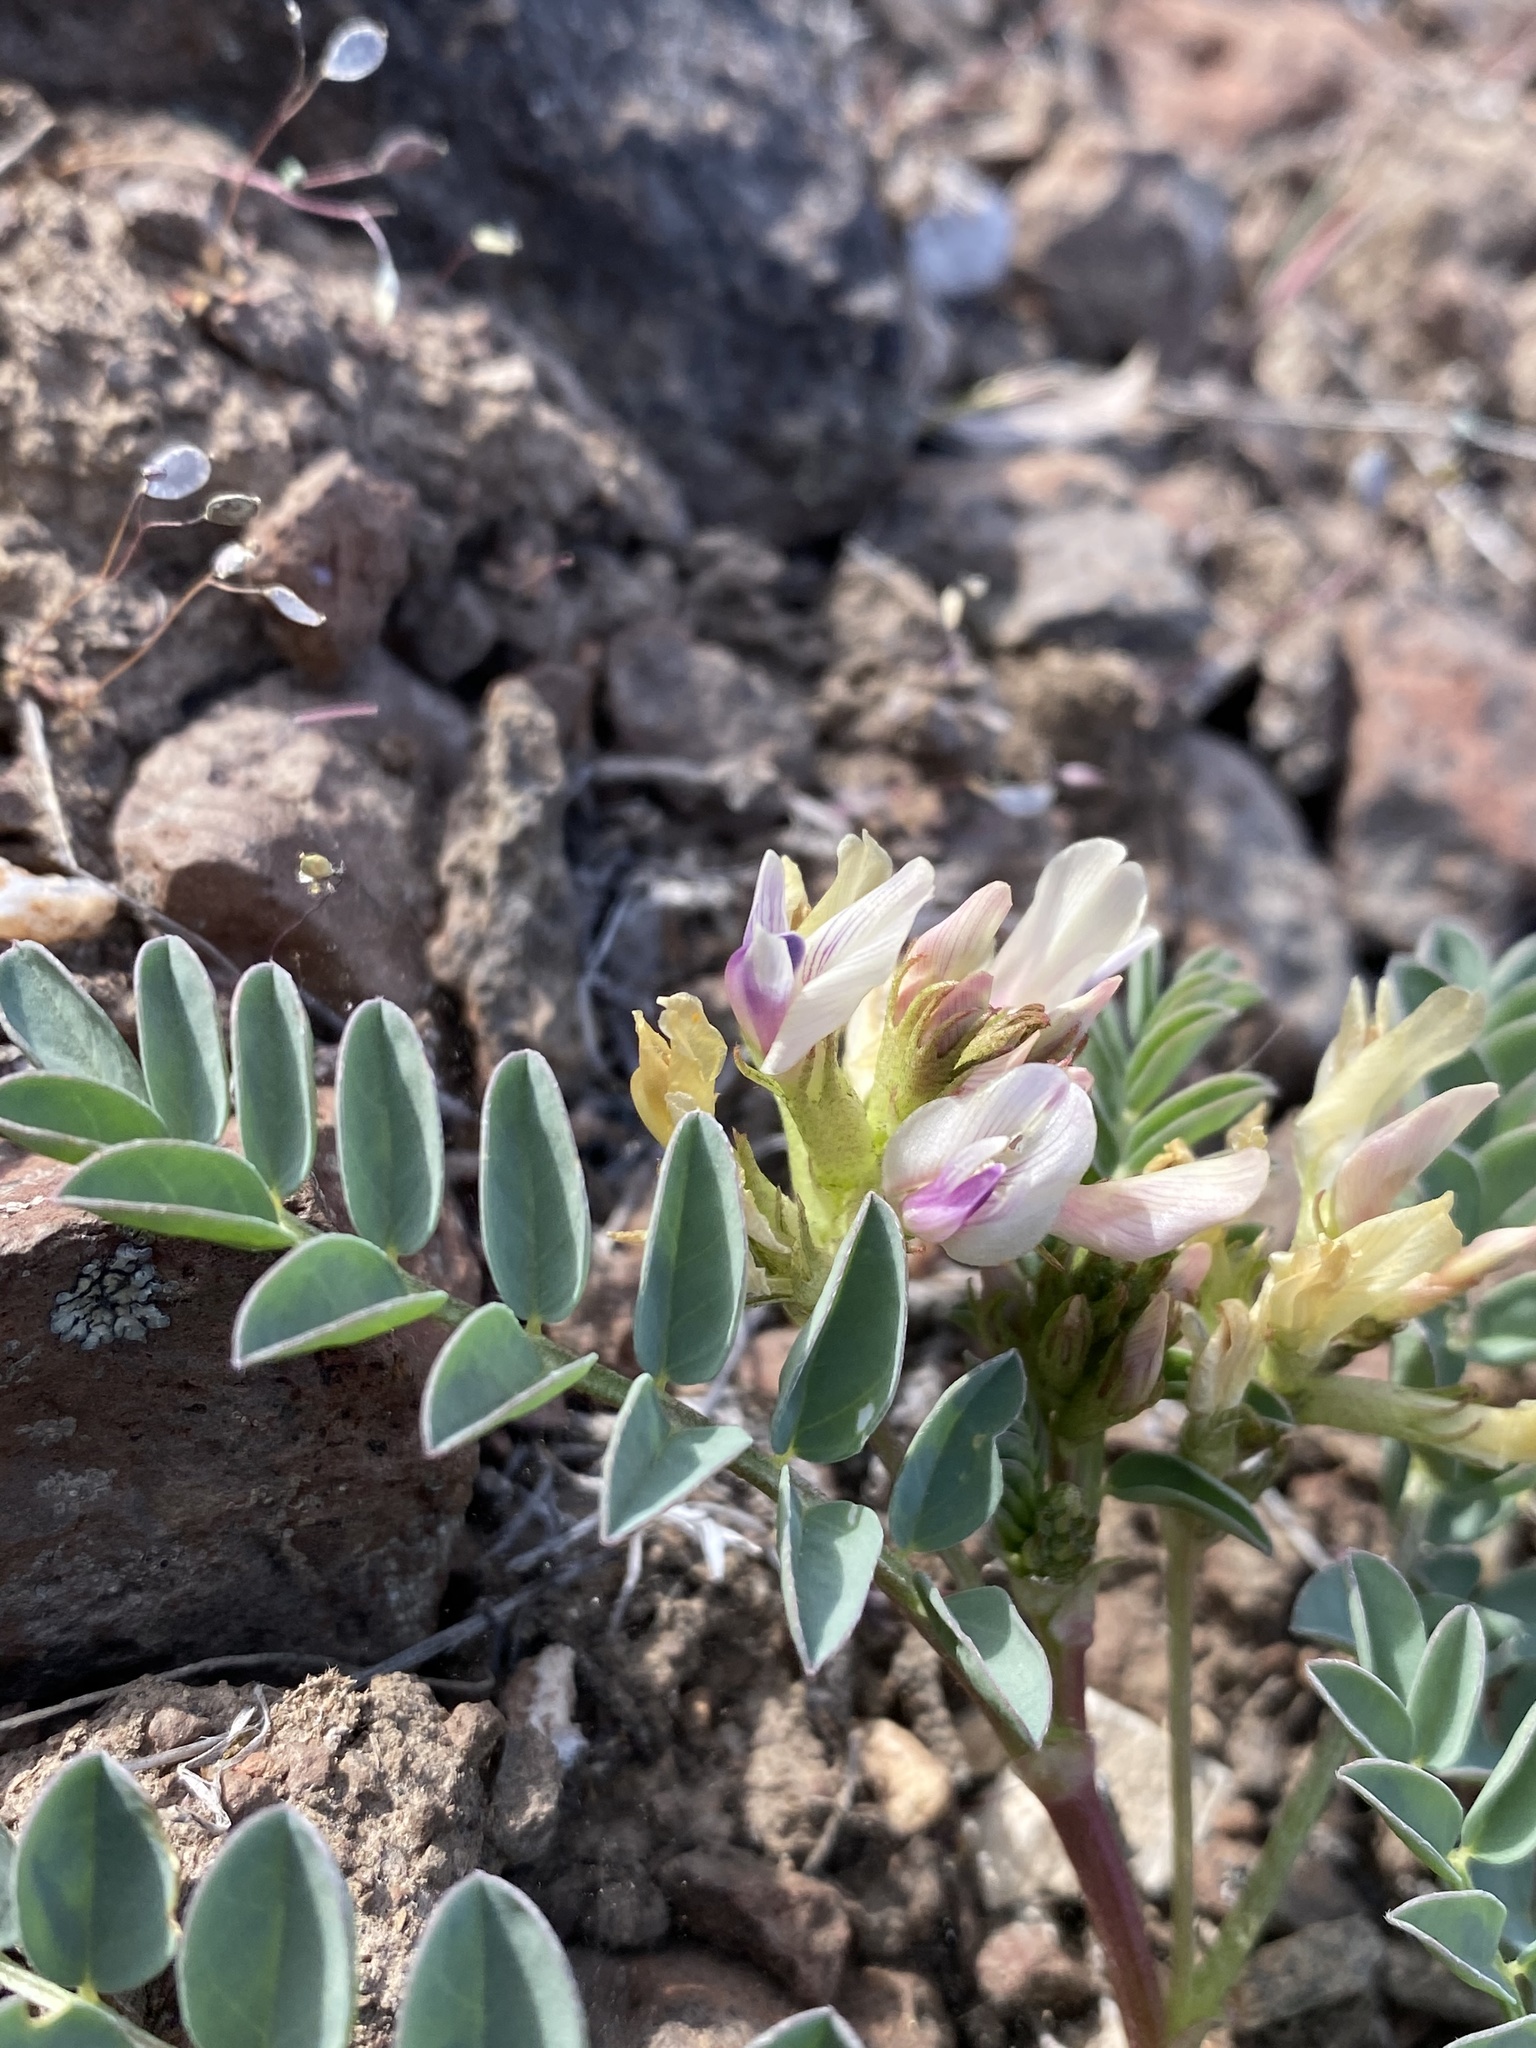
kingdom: Plantae
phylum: Tracheophyta
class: Magnoliopsida
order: Fabales
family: Fabaceae
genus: Astragalus
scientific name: Astragalus lentiginosus
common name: Freckled milkvetch
